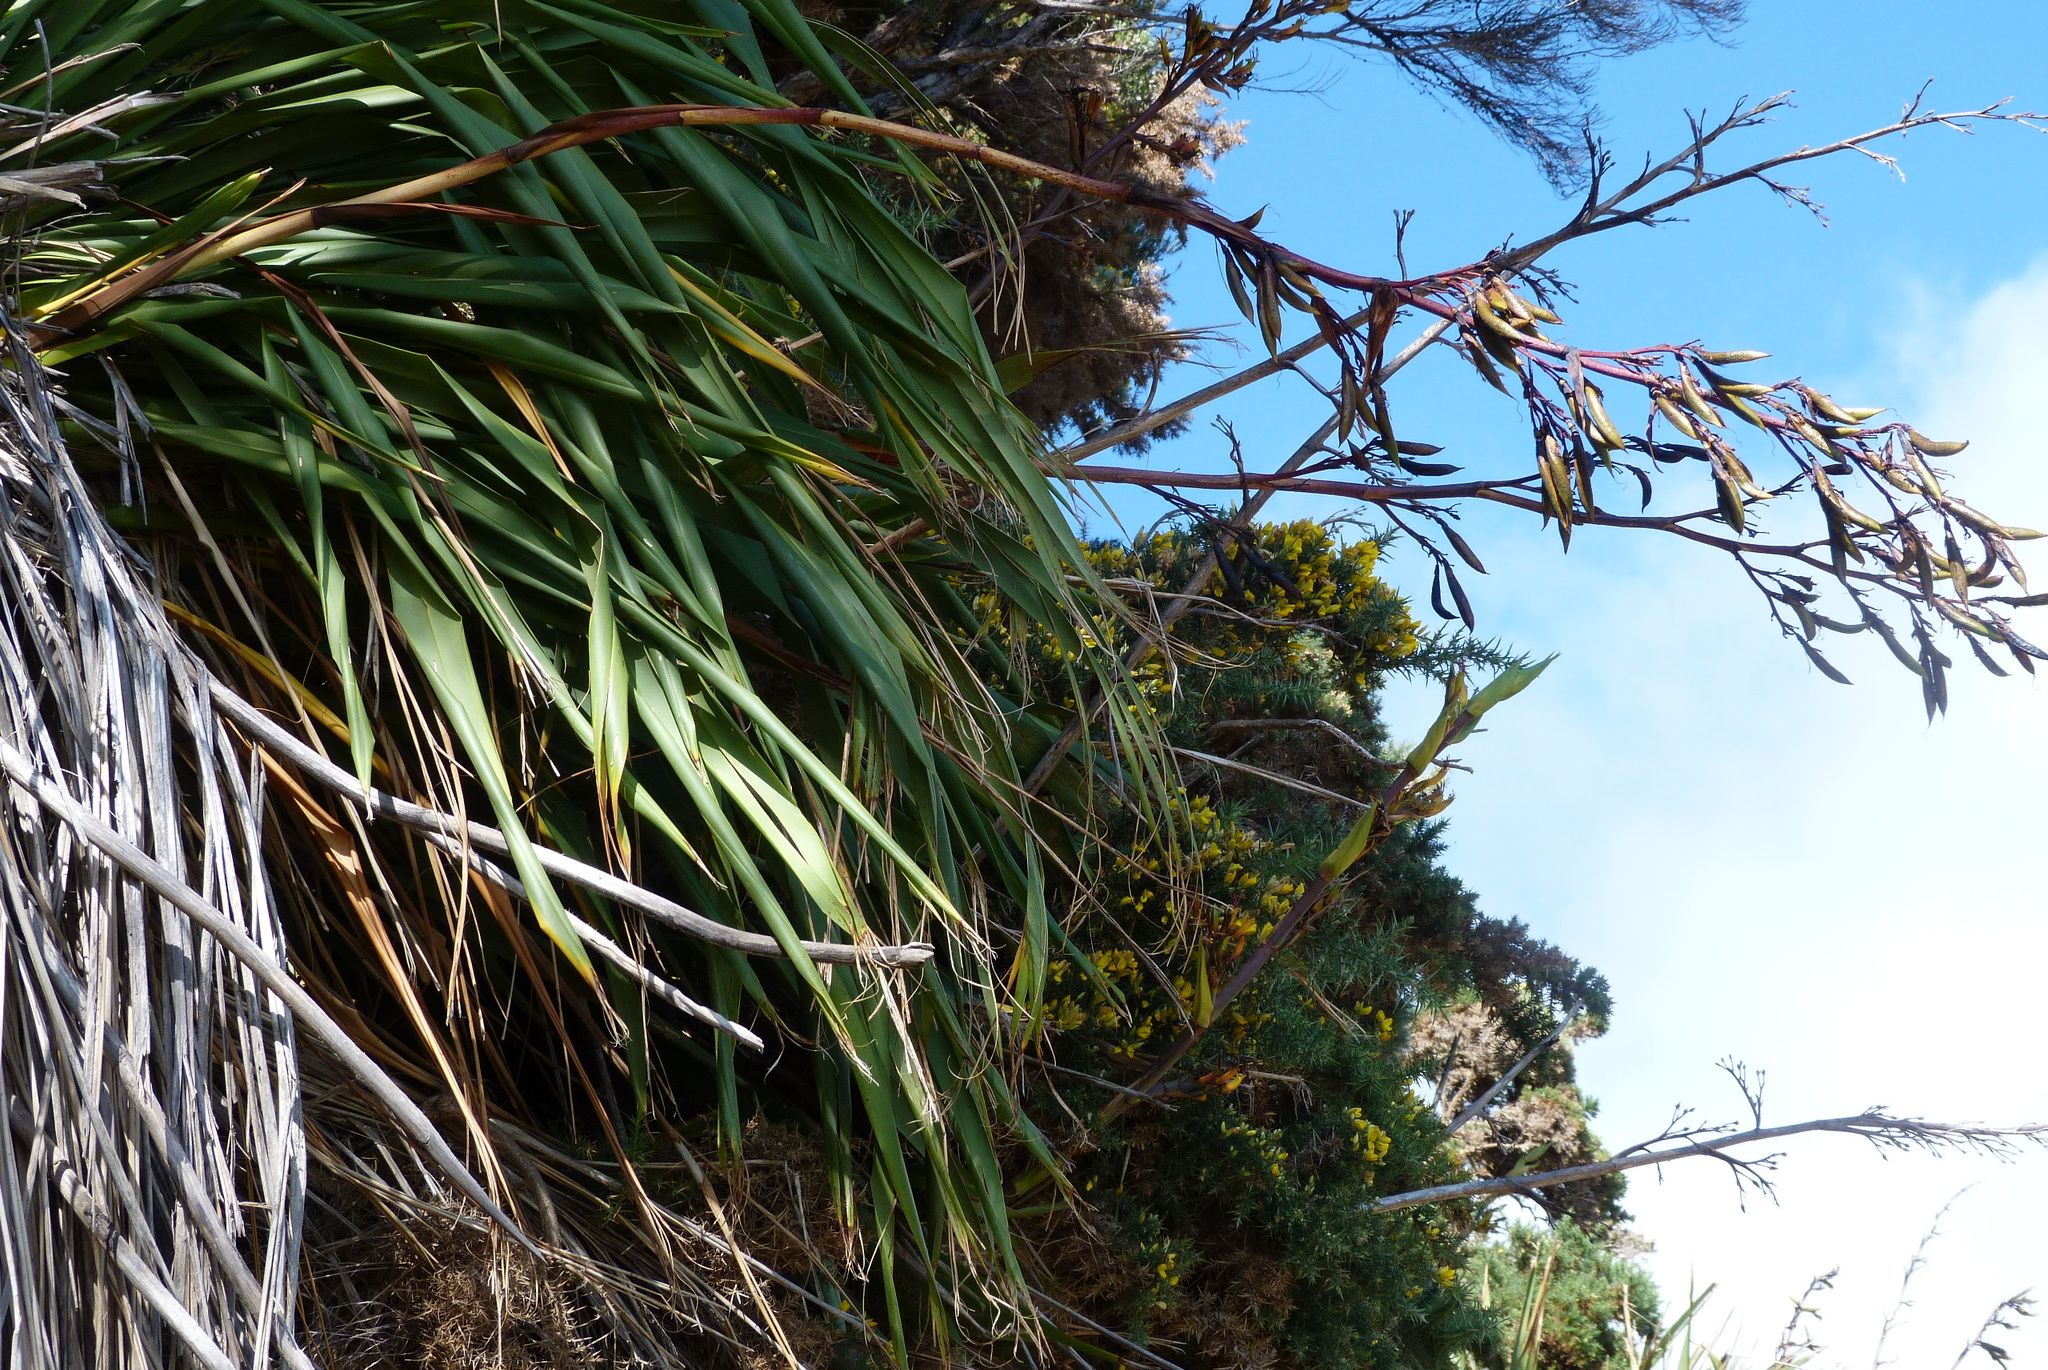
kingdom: Plantae
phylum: Tracheophyta
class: Liliopsida
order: Asparagales
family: Asphodelaceae
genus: Phormium
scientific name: Phormium colensoi
